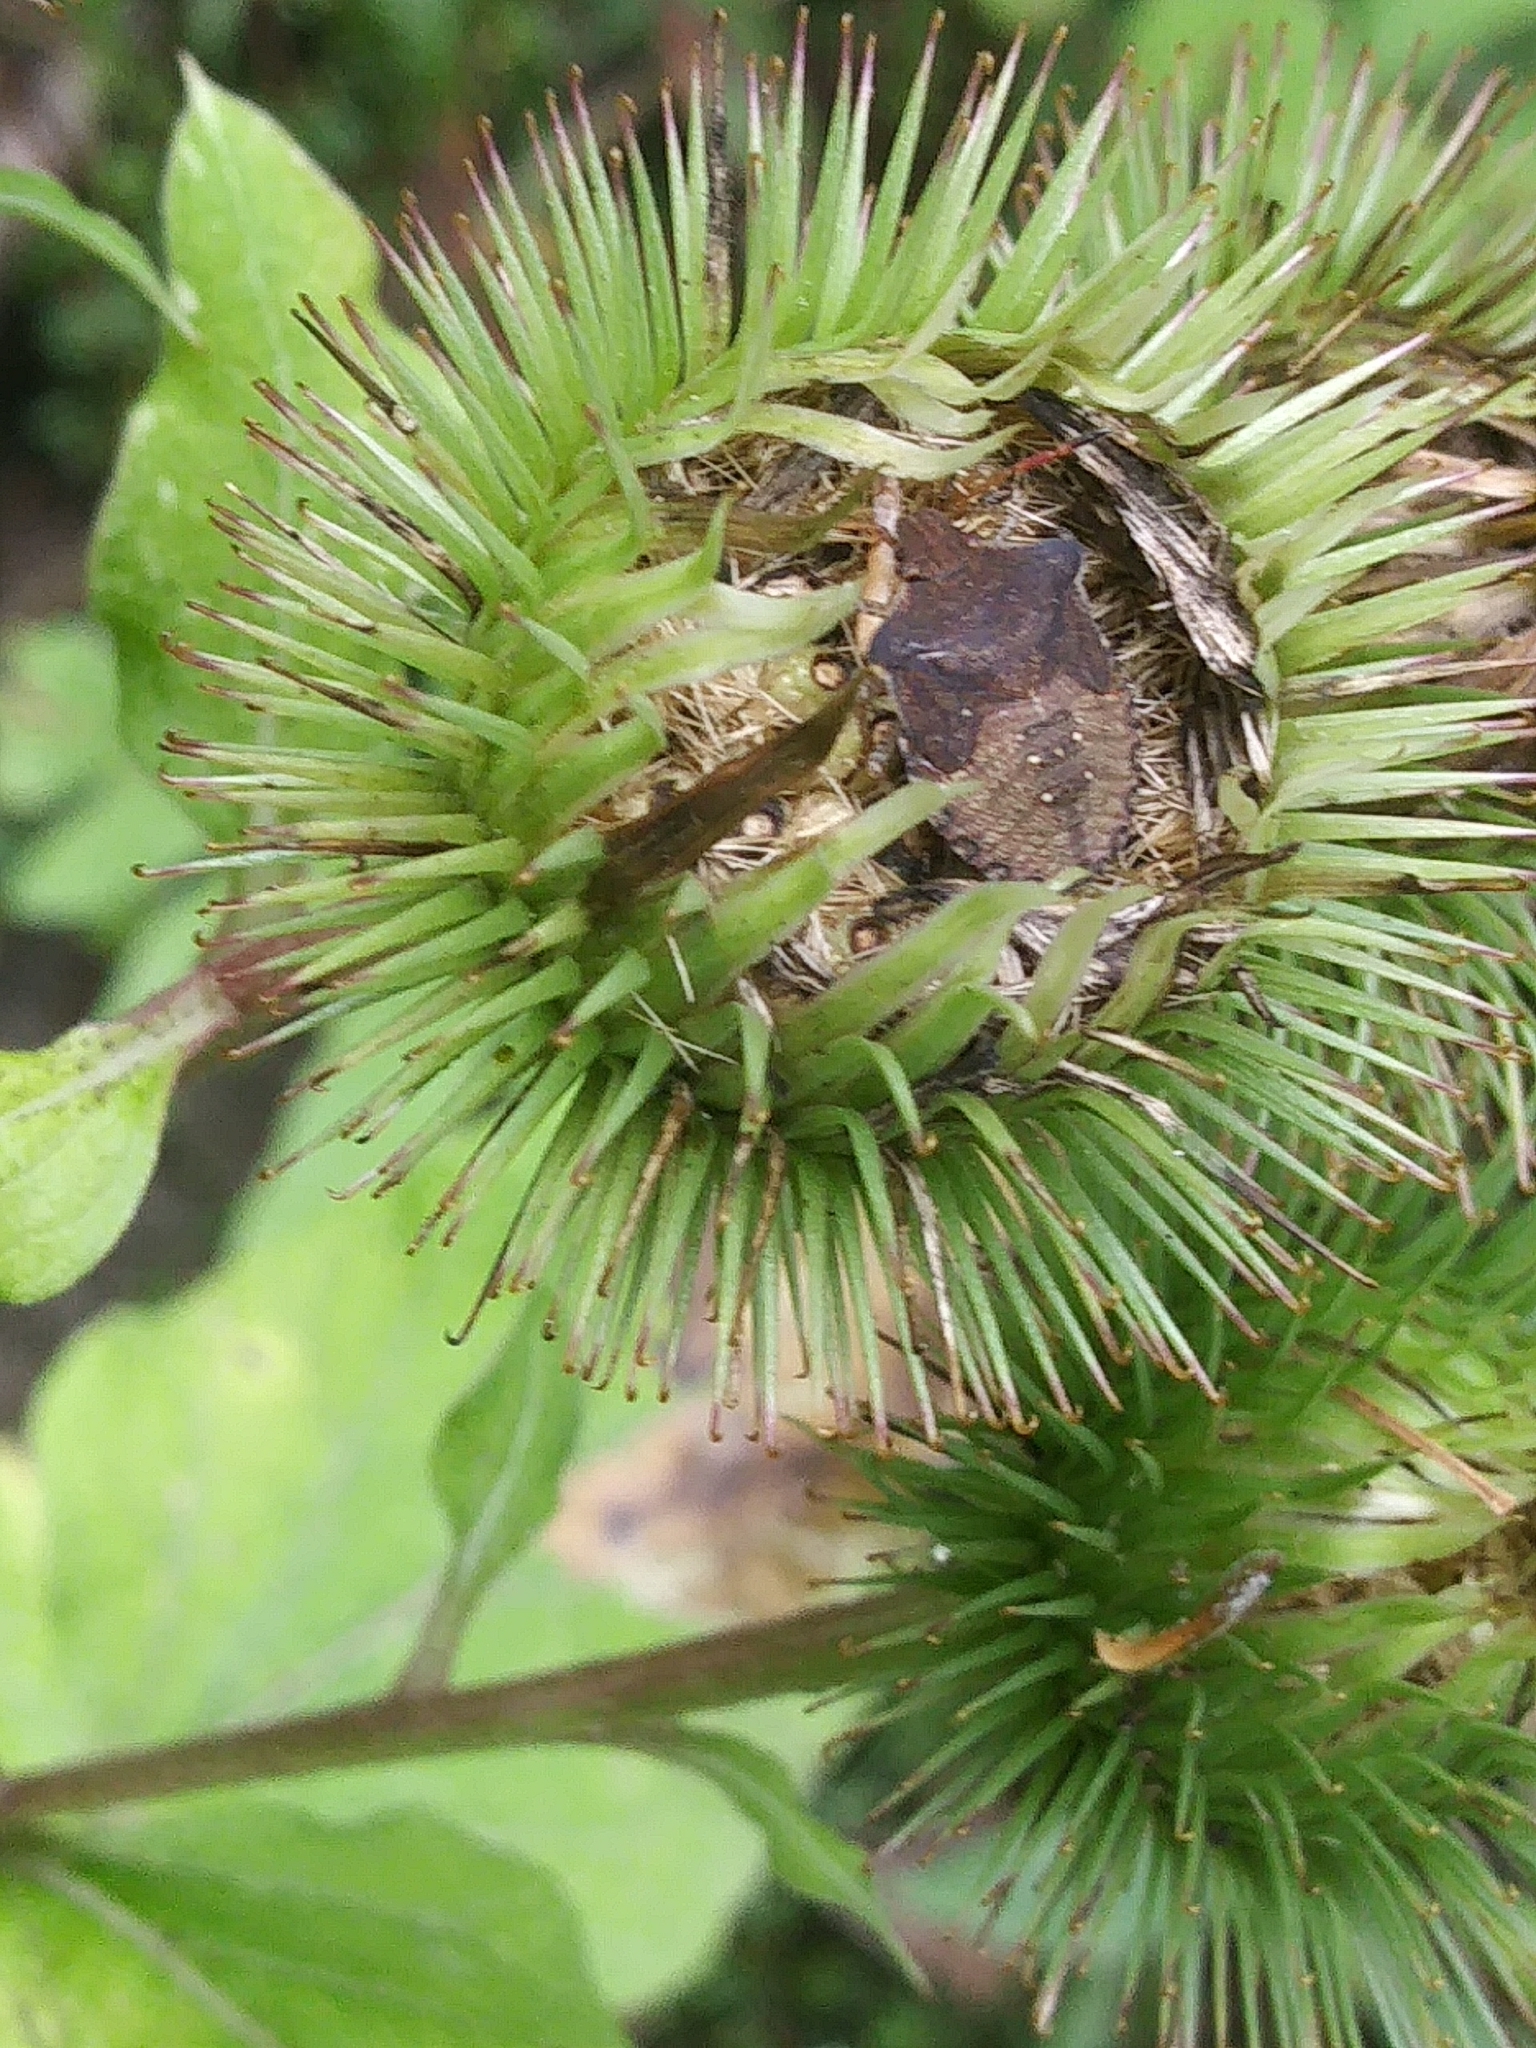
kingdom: Plantae
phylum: Tracheophyta
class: Magnoliopsida
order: Asterales
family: Asteraceae
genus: Arctium
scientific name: Arctium lappa
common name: Greater burdock
